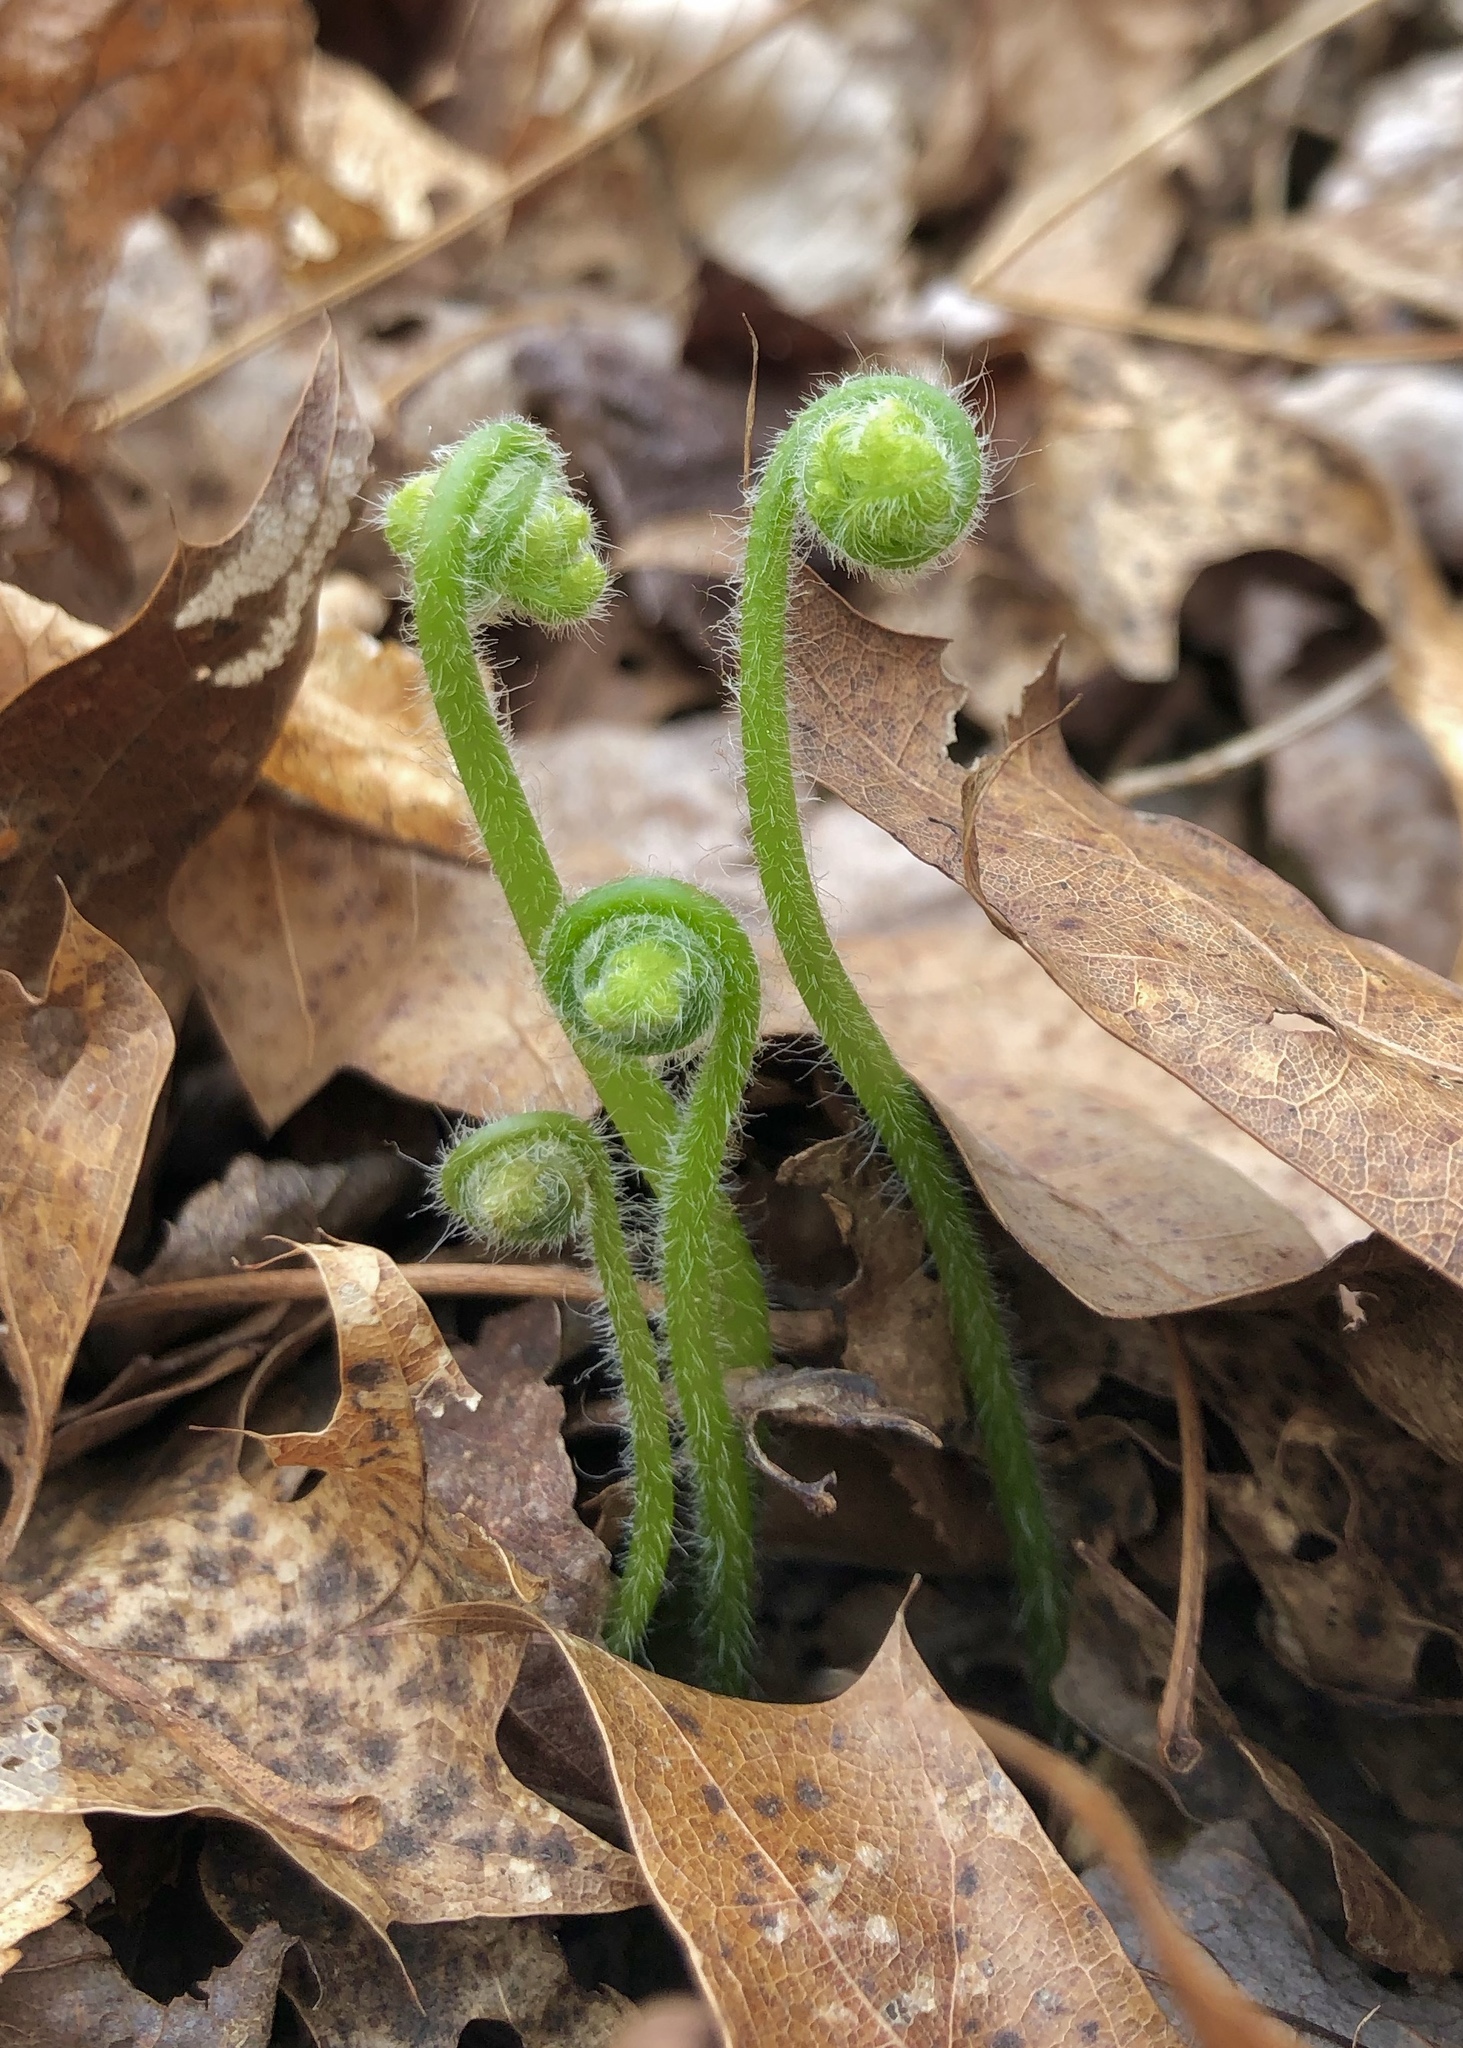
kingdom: Plantae
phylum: Tracheophyta
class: Polypodiopsida
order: Polypodiales
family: Dennstaedtiaceae
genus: Sitobolium
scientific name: Sitobolium punctilobum
